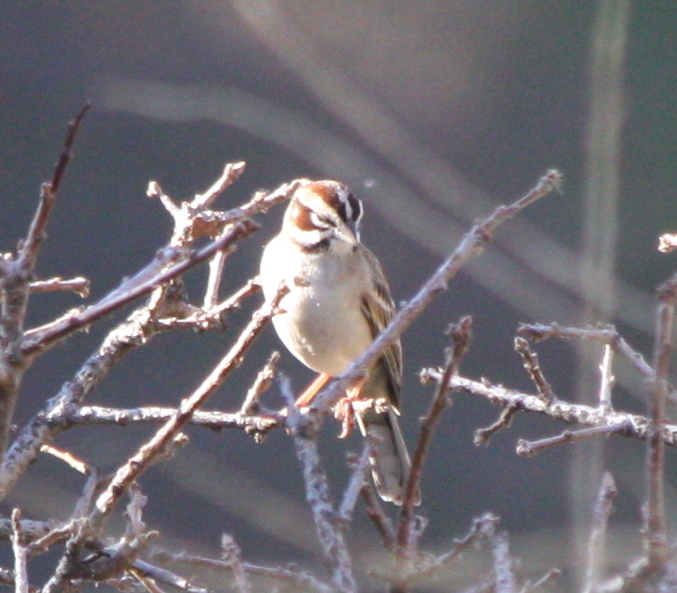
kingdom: Animalia
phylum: Chordata
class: Aves
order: Passeriformes
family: Passerellidae
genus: Chondestes
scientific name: Chondestes grammacus
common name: Lark sparrow
